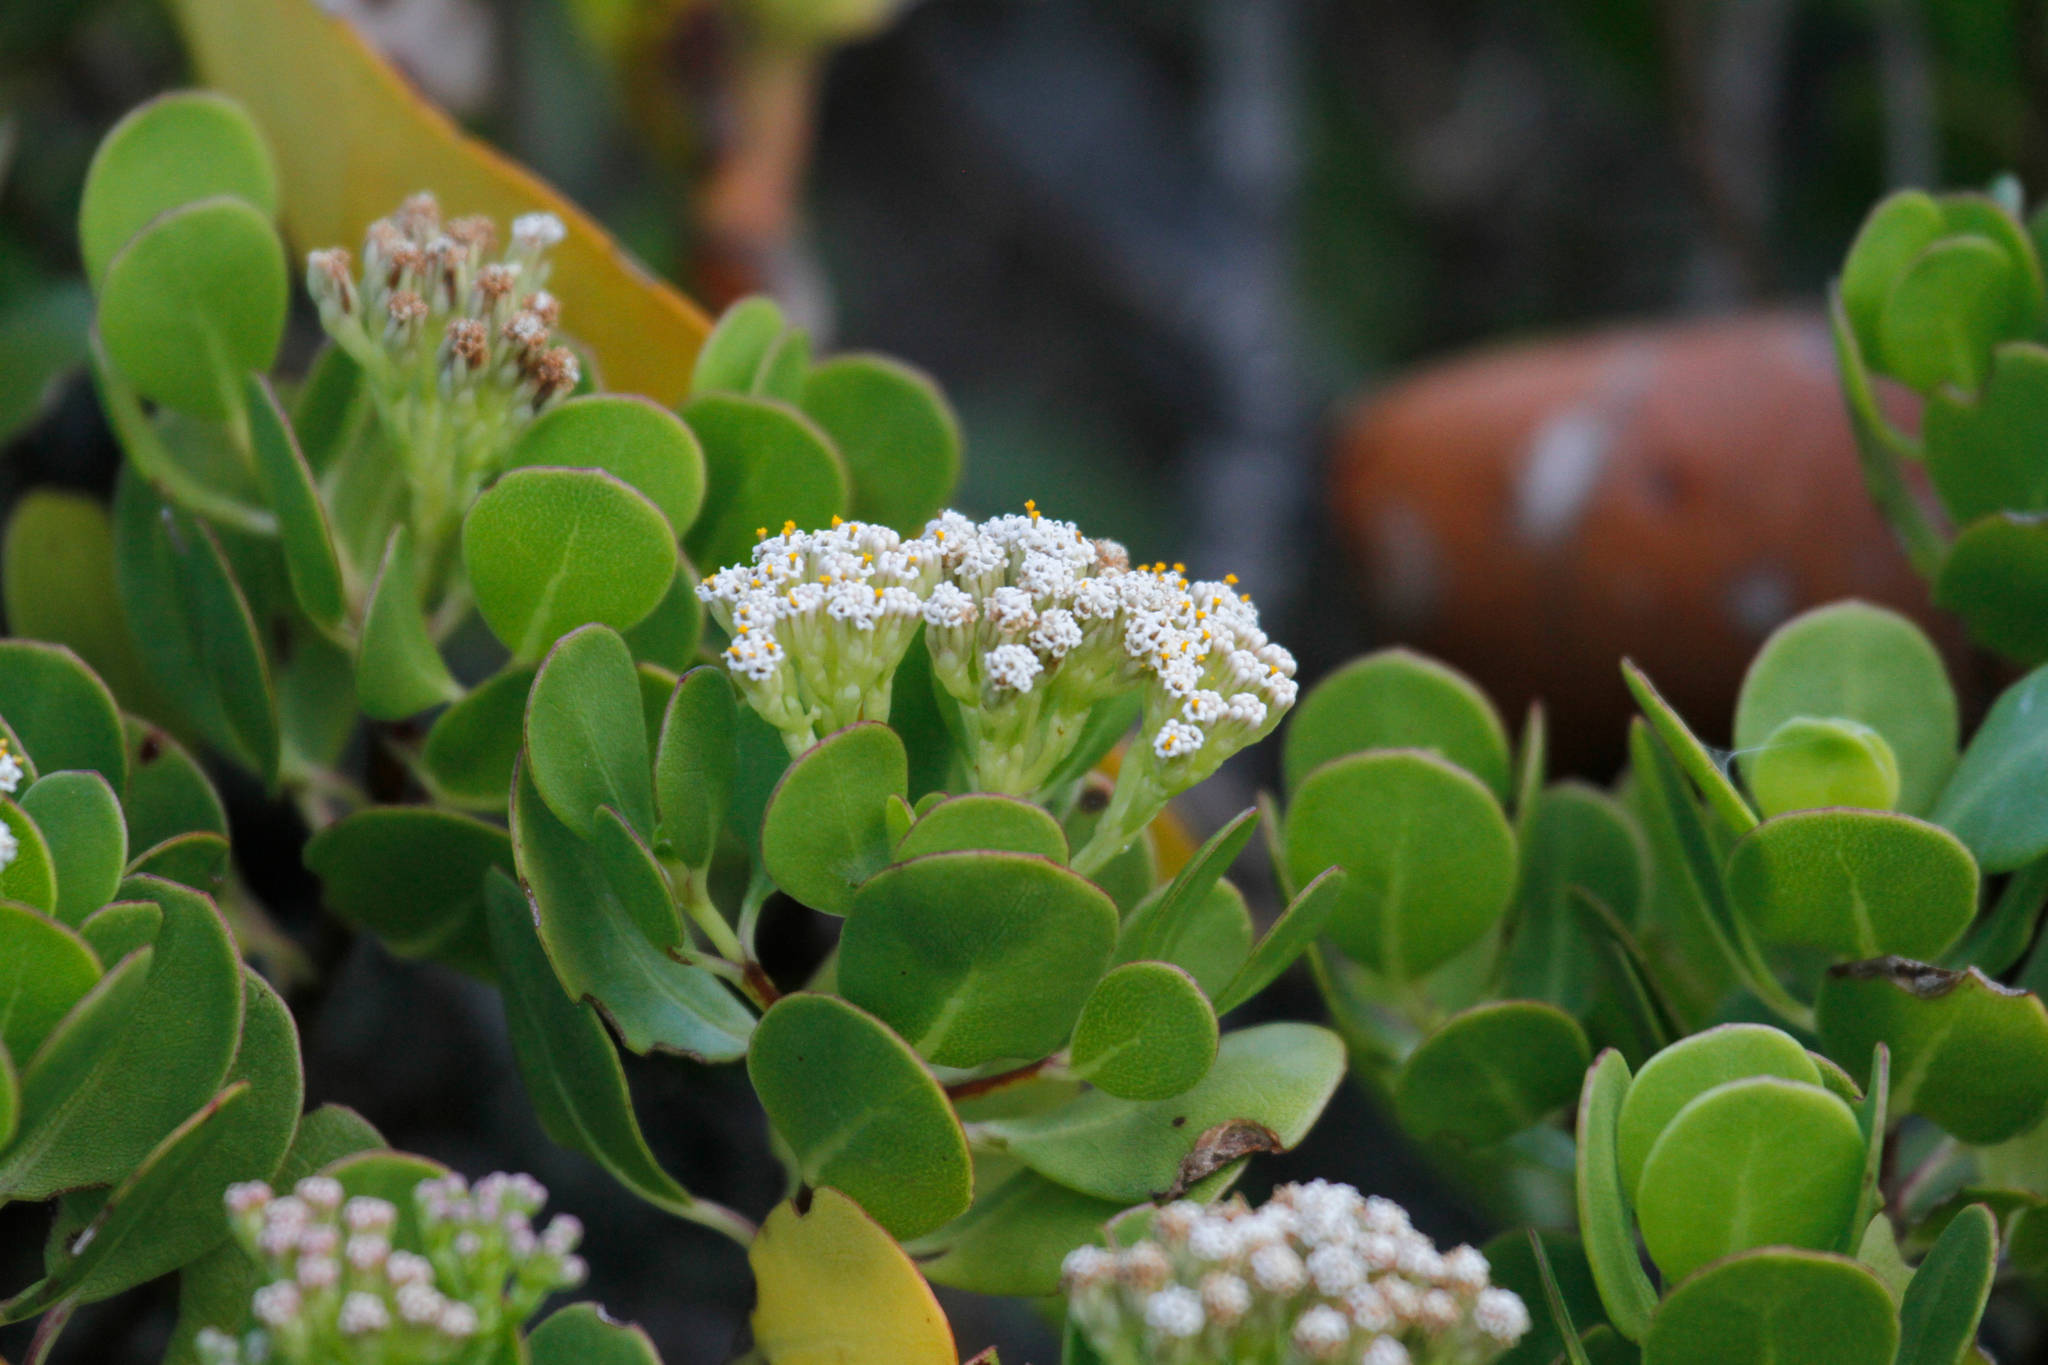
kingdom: Plantae
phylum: Tracheophyta
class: Magnoliopsida
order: Asterales
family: Asteraceae
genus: Salmea
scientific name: Salmea petrobioides
